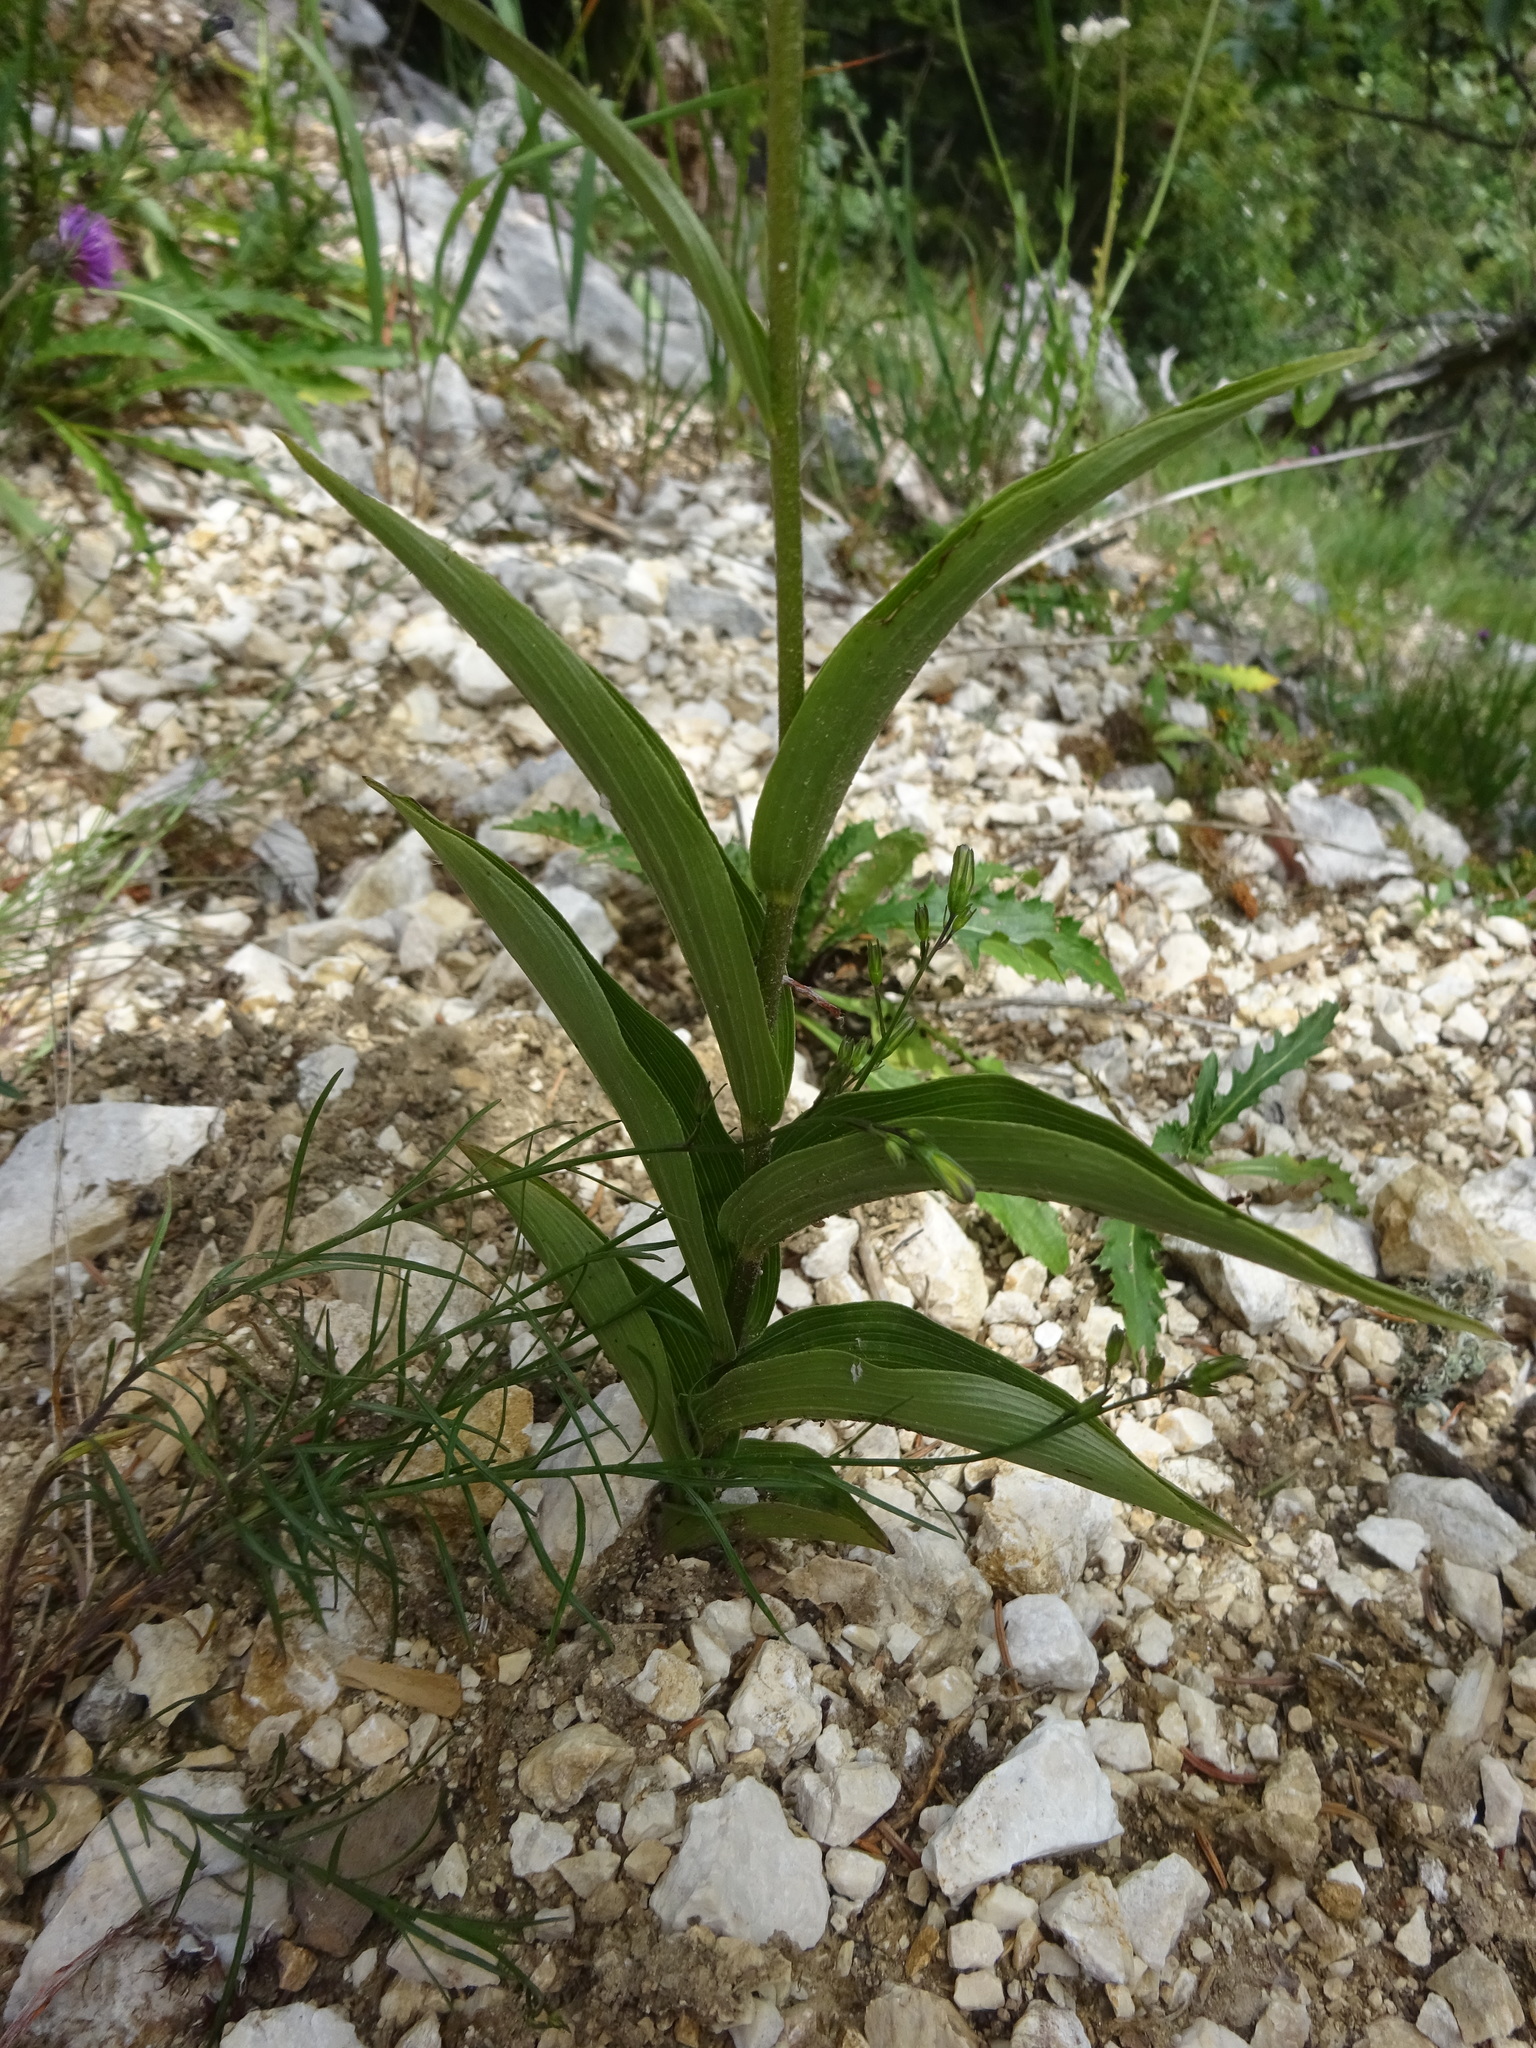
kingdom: Plantae
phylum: Tracheophyta
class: Liliopsida
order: Asparagales
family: Orchidaceae
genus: Epipactis
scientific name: Epipactis atrorubens
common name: Dark-red helleborine
